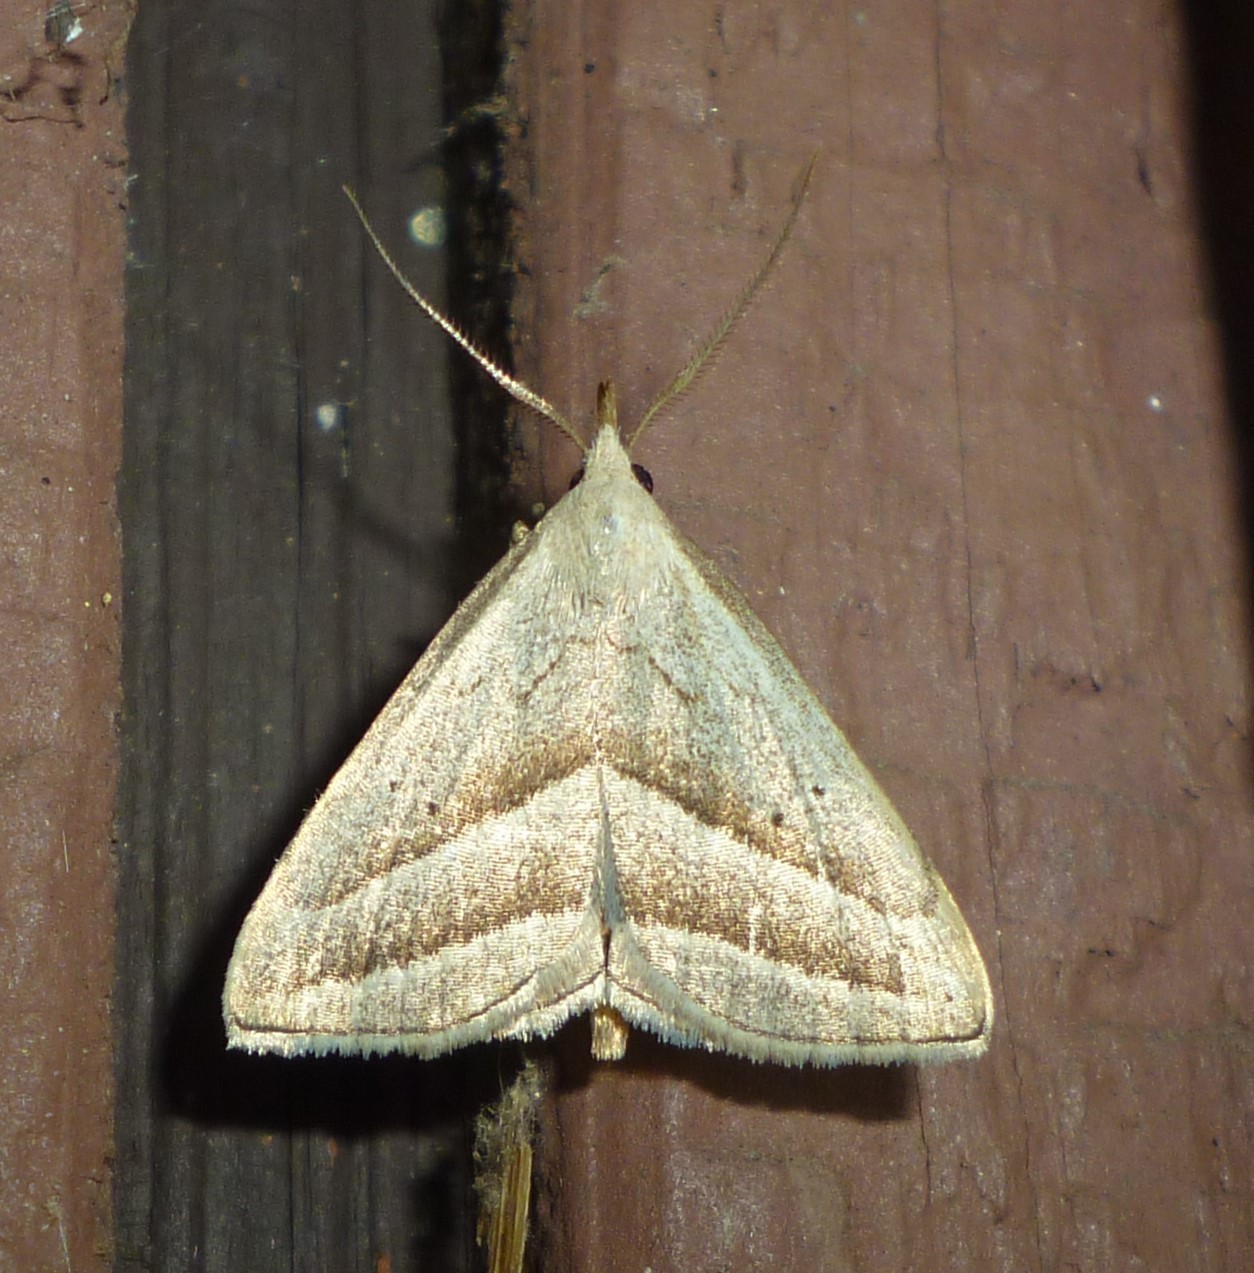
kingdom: Animalia
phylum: Arthropoda
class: Insecta
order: Lepidoptera
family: Erebidae
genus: Macrochilo
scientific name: Macrochilo absorptalis
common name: Slant-lined owlet
